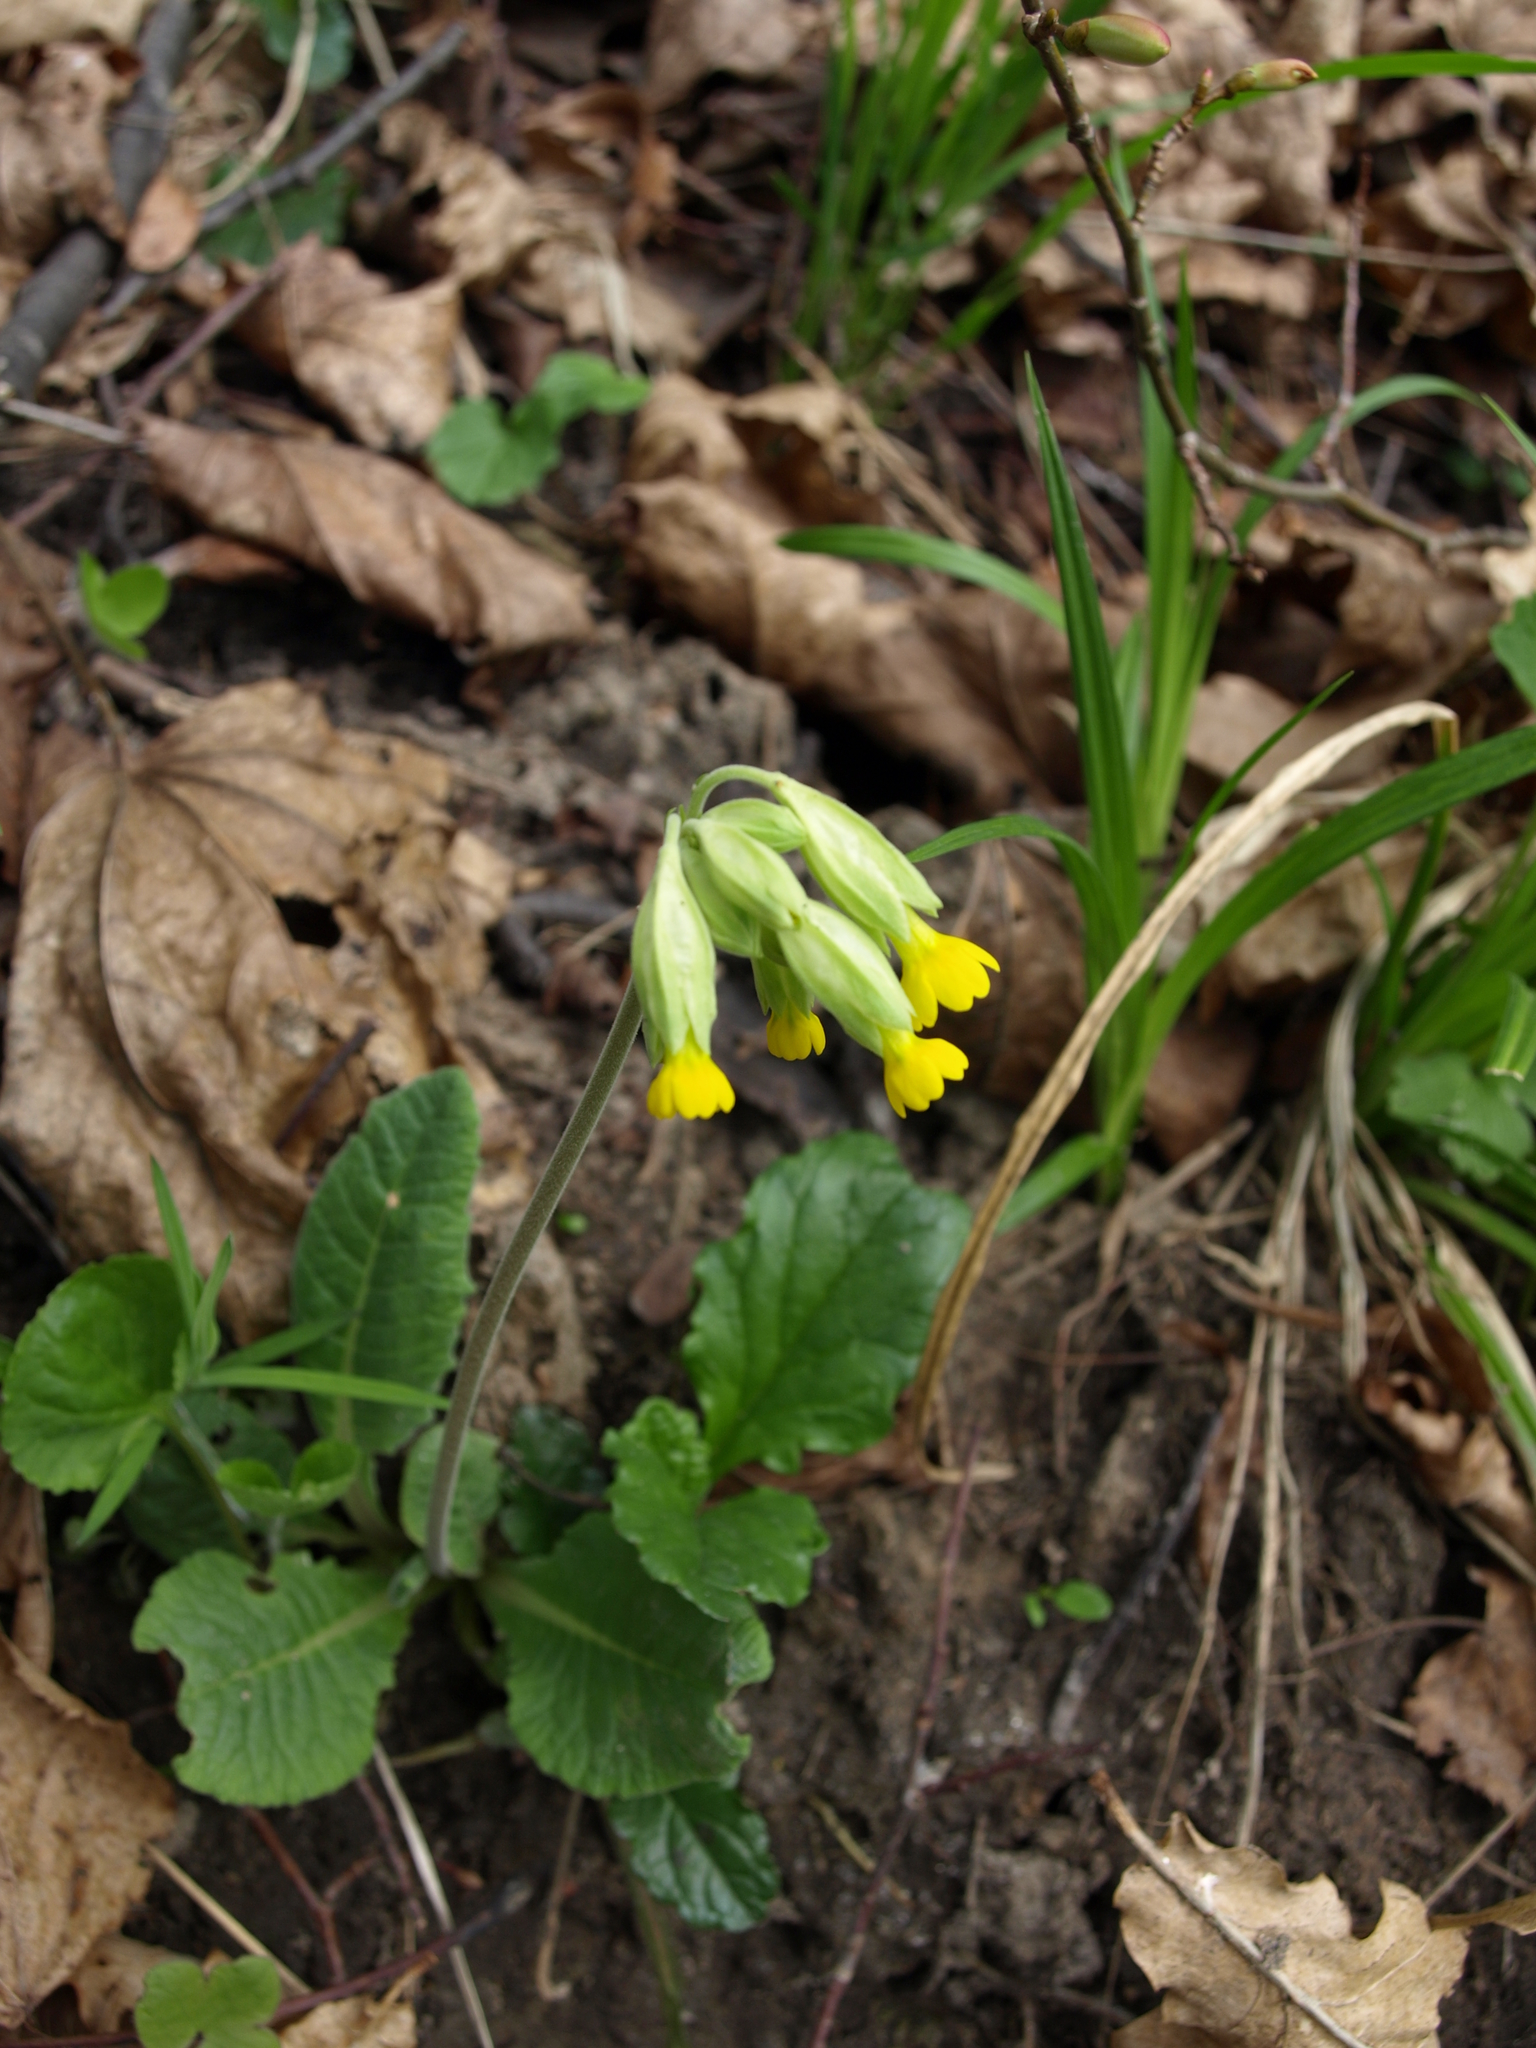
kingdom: Plantae
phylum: Tracheophyta
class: Magnoliopsida
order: Ericales
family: Primulaceae
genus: Primula
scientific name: Primula veris
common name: Cowslip
